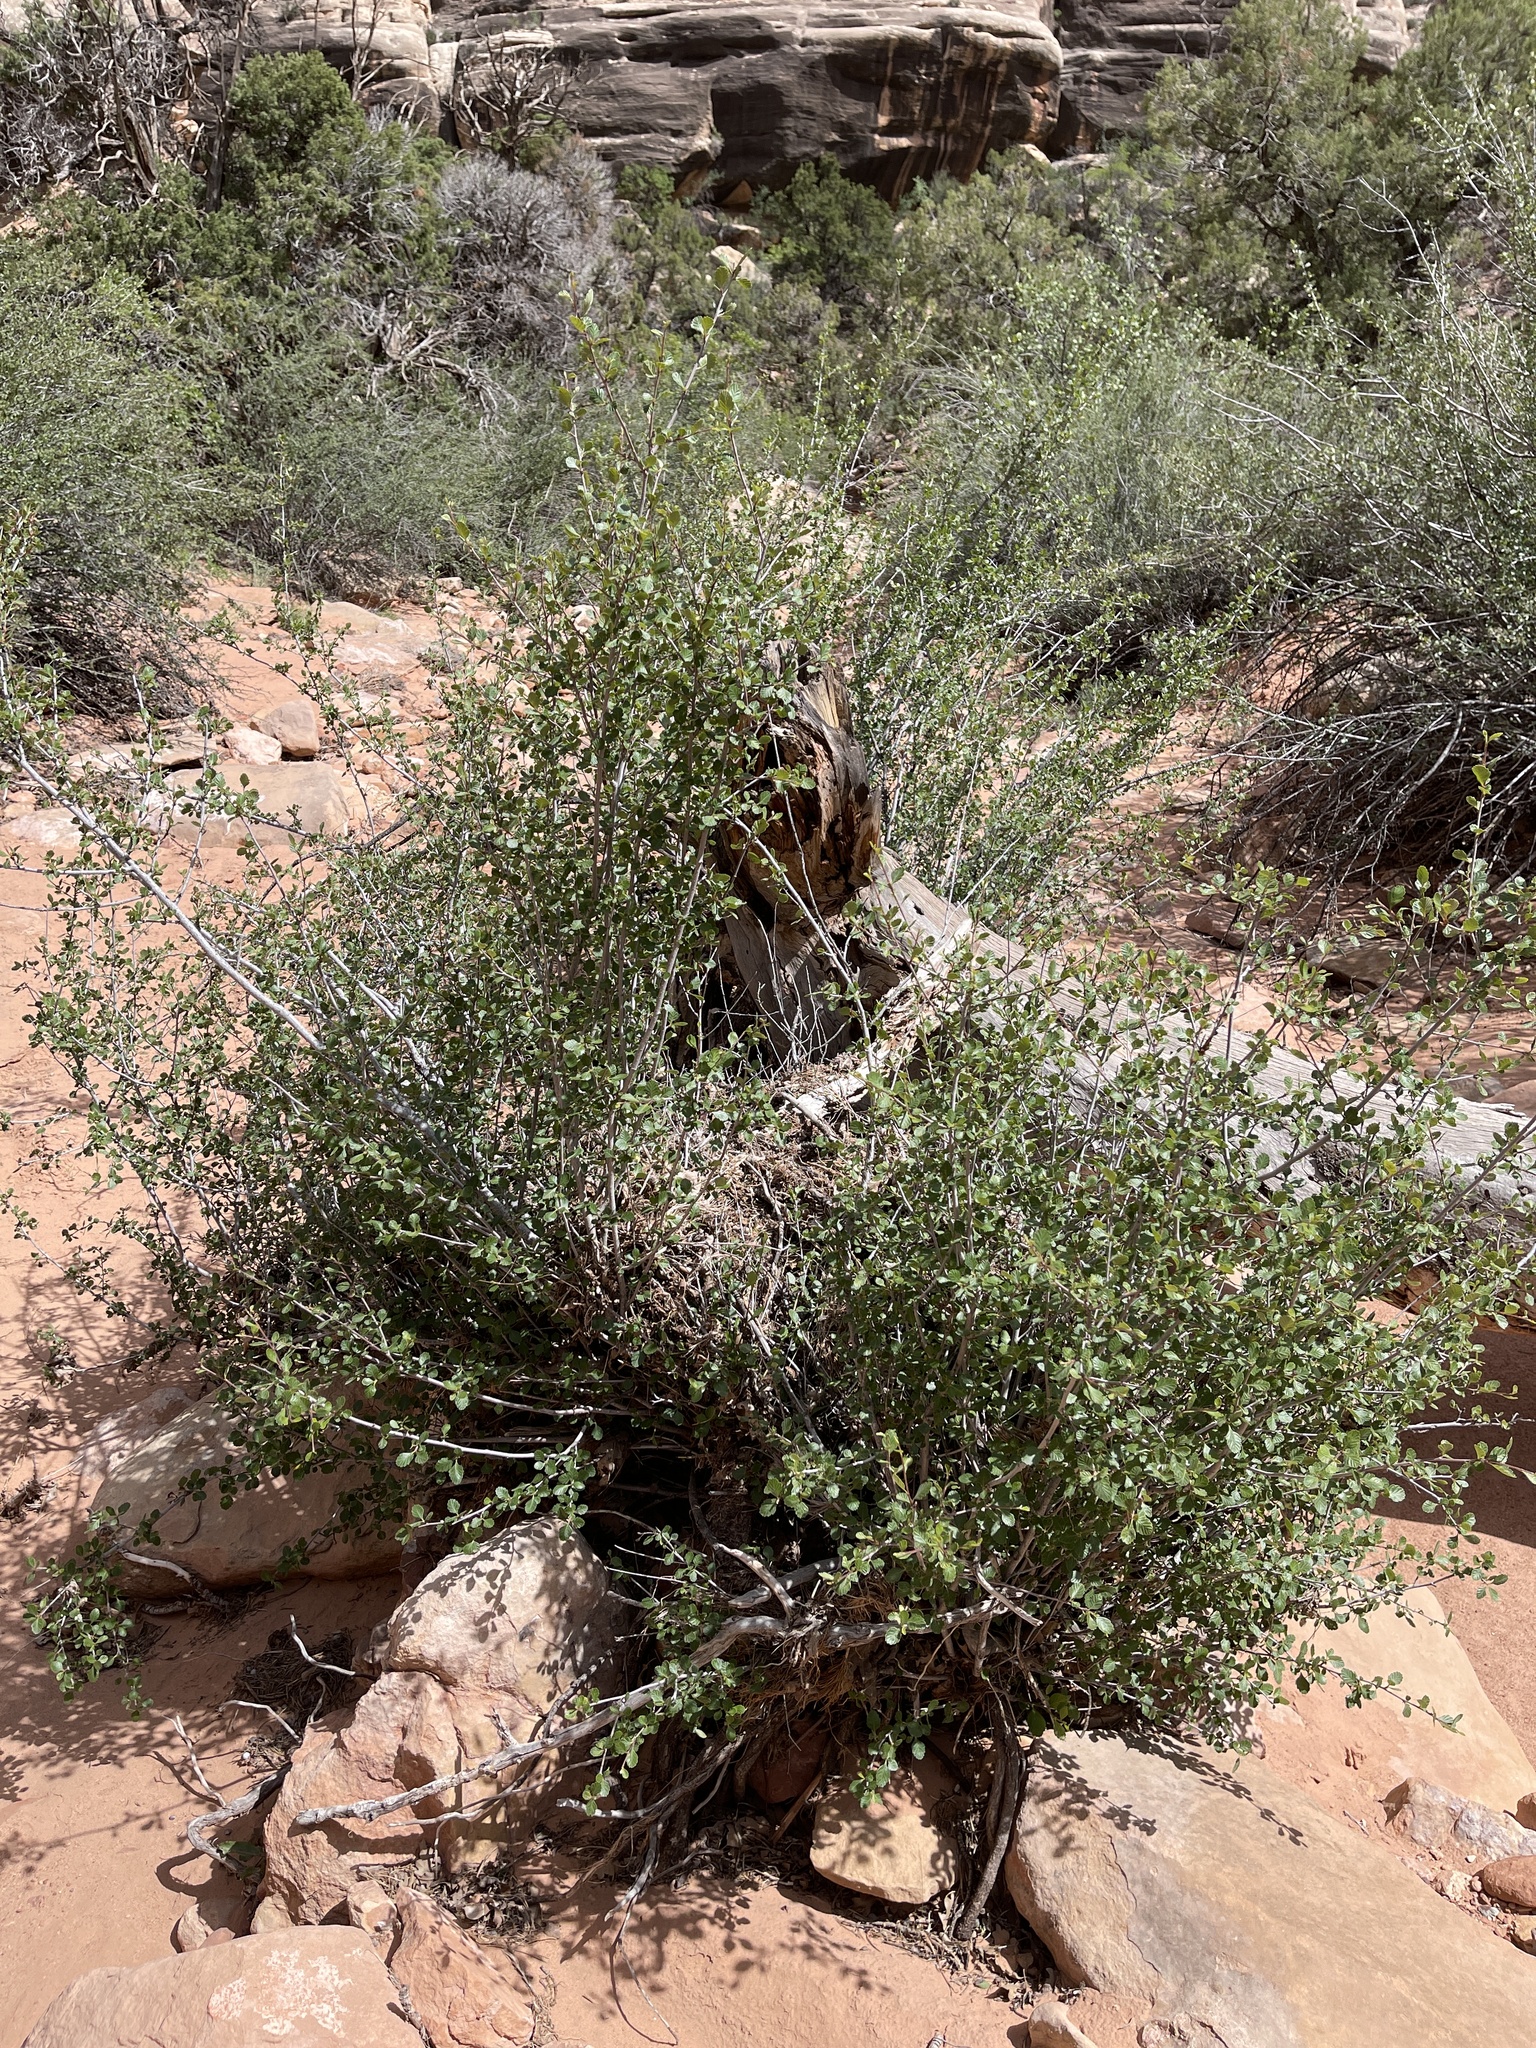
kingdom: Plantae
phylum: Tracheophyta
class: Magnoliopsida
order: Rosales
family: Rosaceae
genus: Cercocarpus
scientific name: Cercocarpus montanus
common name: Alder-leaf cercocarpus
